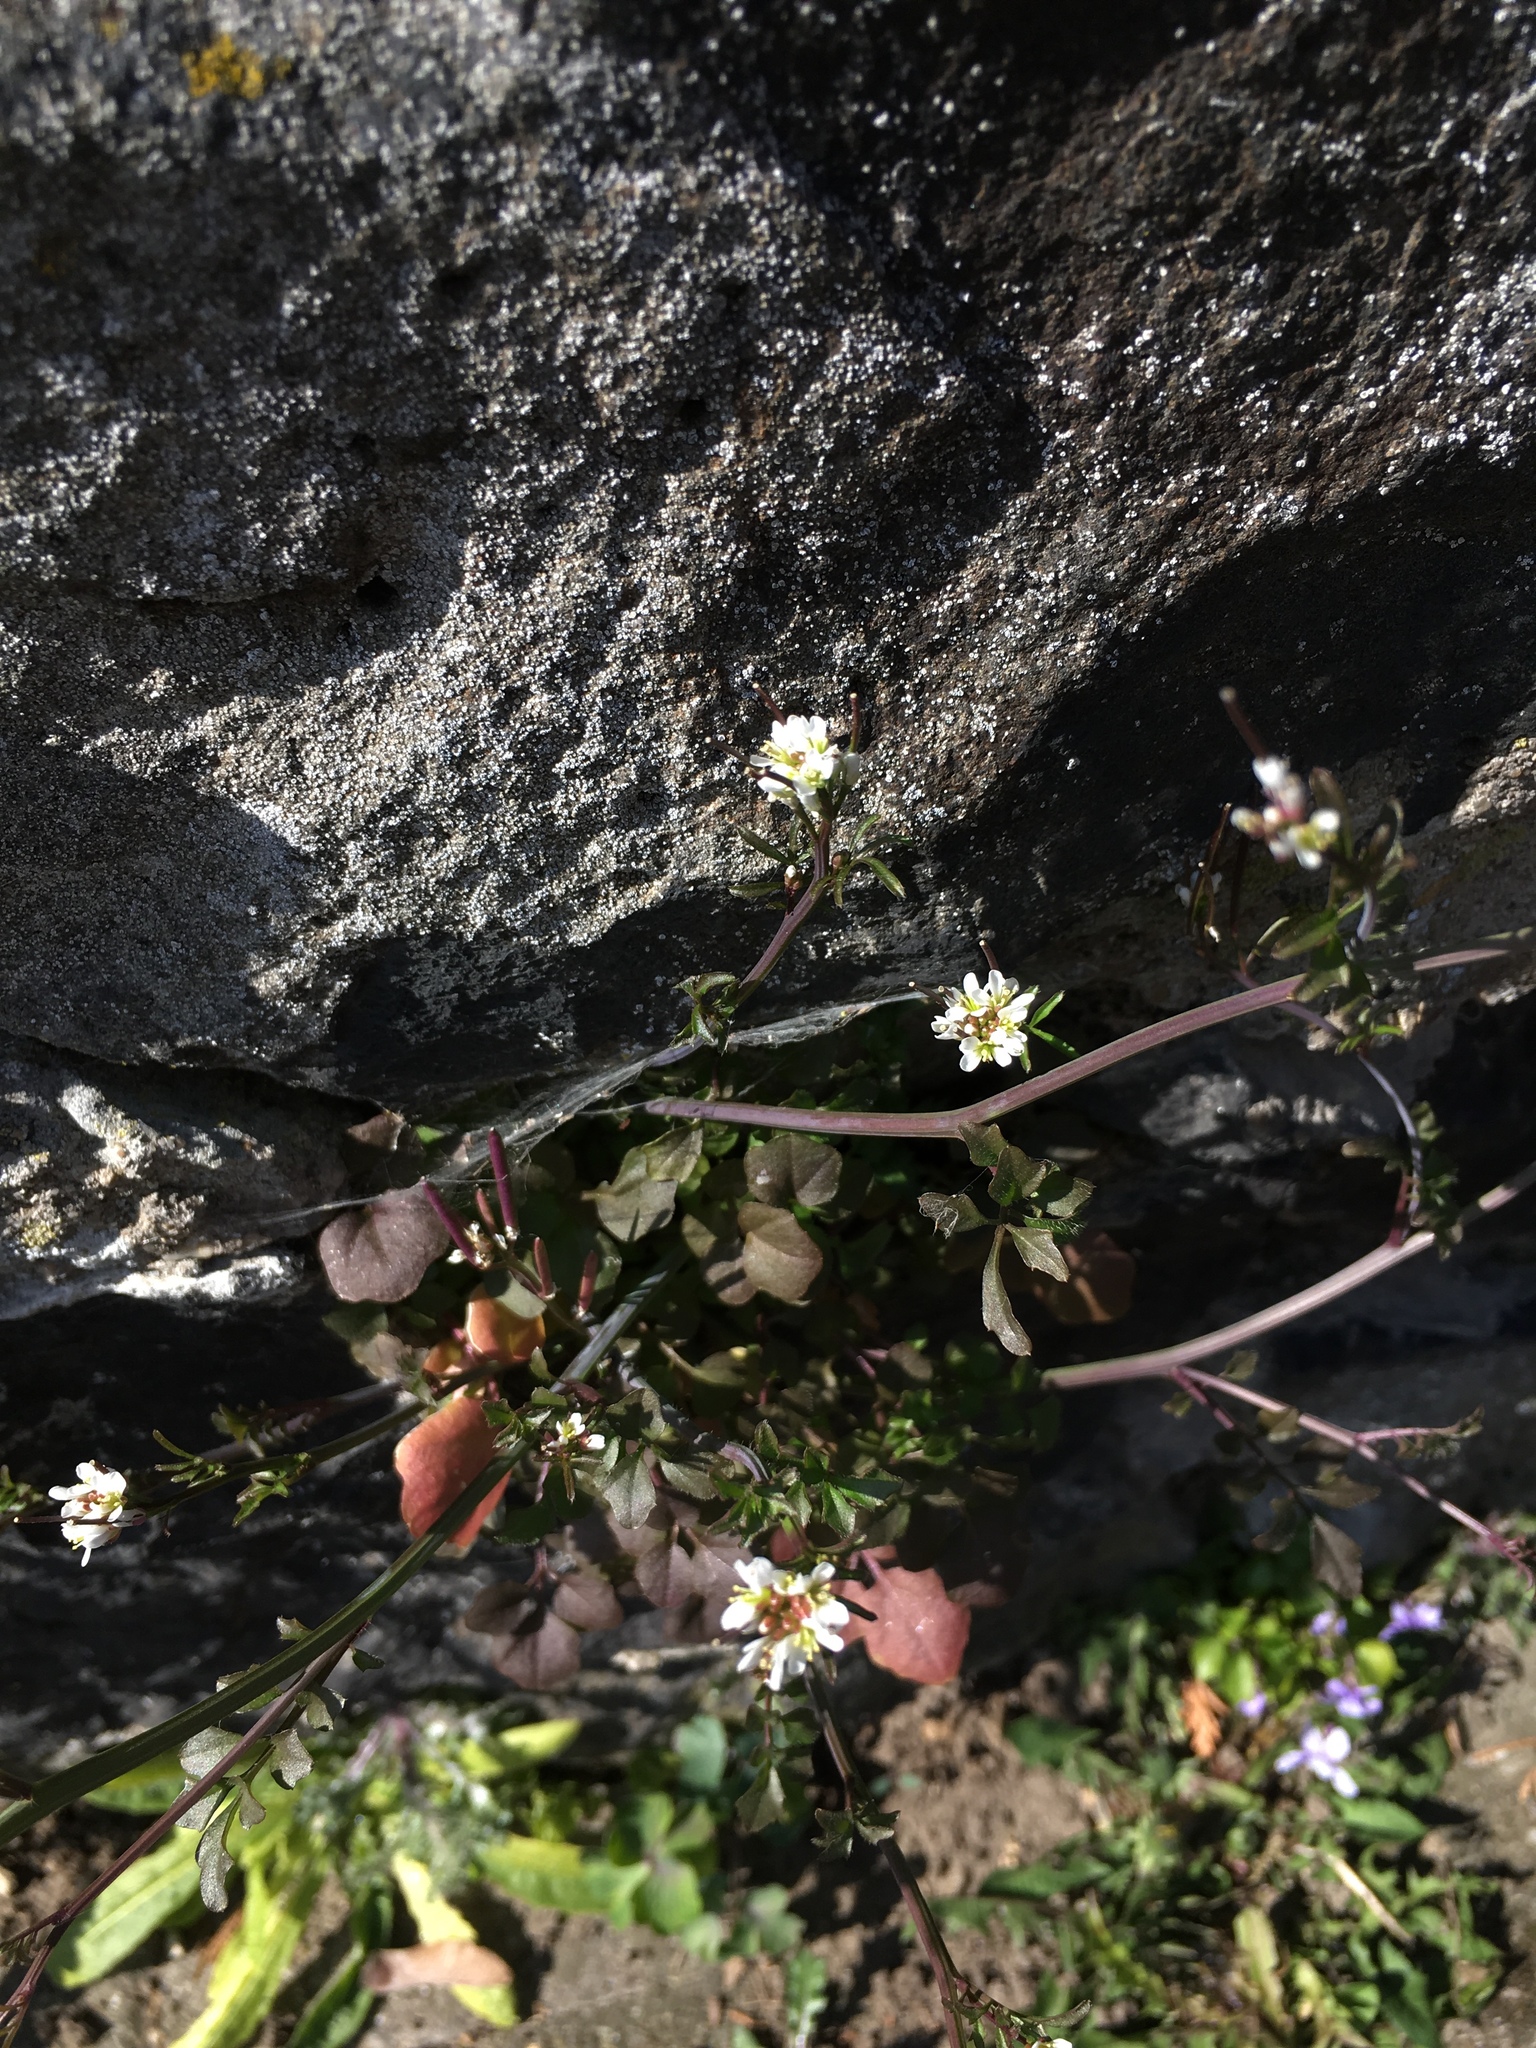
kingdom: Plantae
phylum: Tracheophyta
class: Magnoliopsida
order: Brassicales
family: Brassicaceae
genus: Cardamine
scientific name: Cardamine hirsuta
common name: Hairy bittercress
